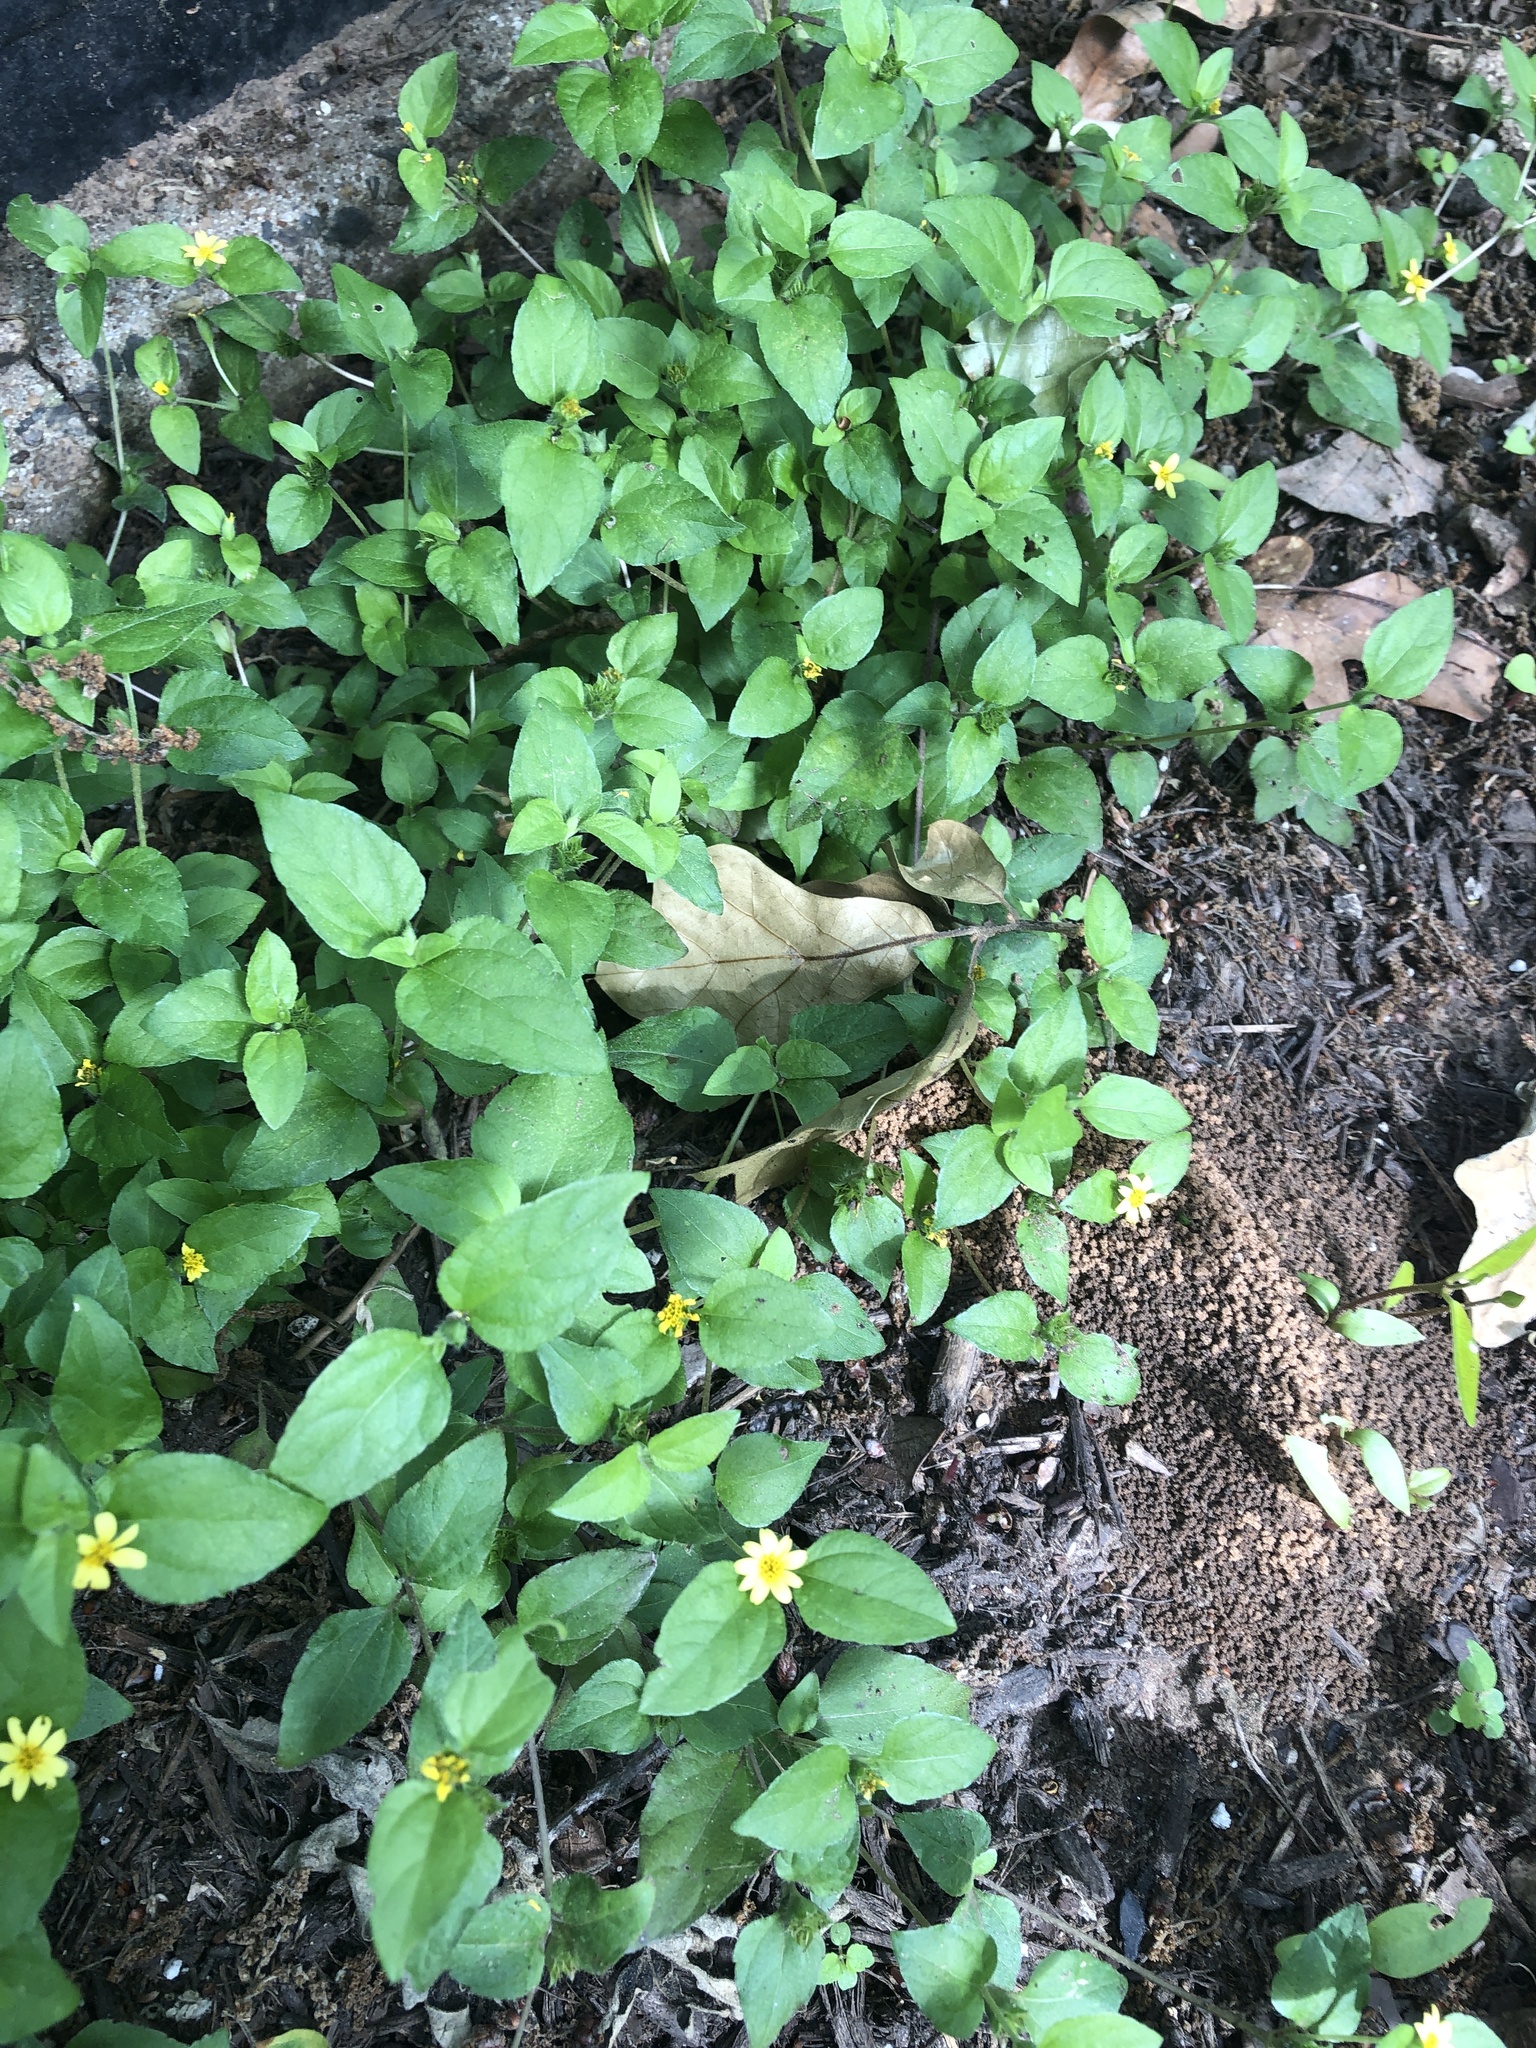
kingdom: Plantae
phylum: Tracheophyta
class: Magnoliopsida
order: Asterales
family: Asteraceae
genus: Calyptocarpus
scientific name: Calyptocarpus vialis
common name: Straggler daisy
